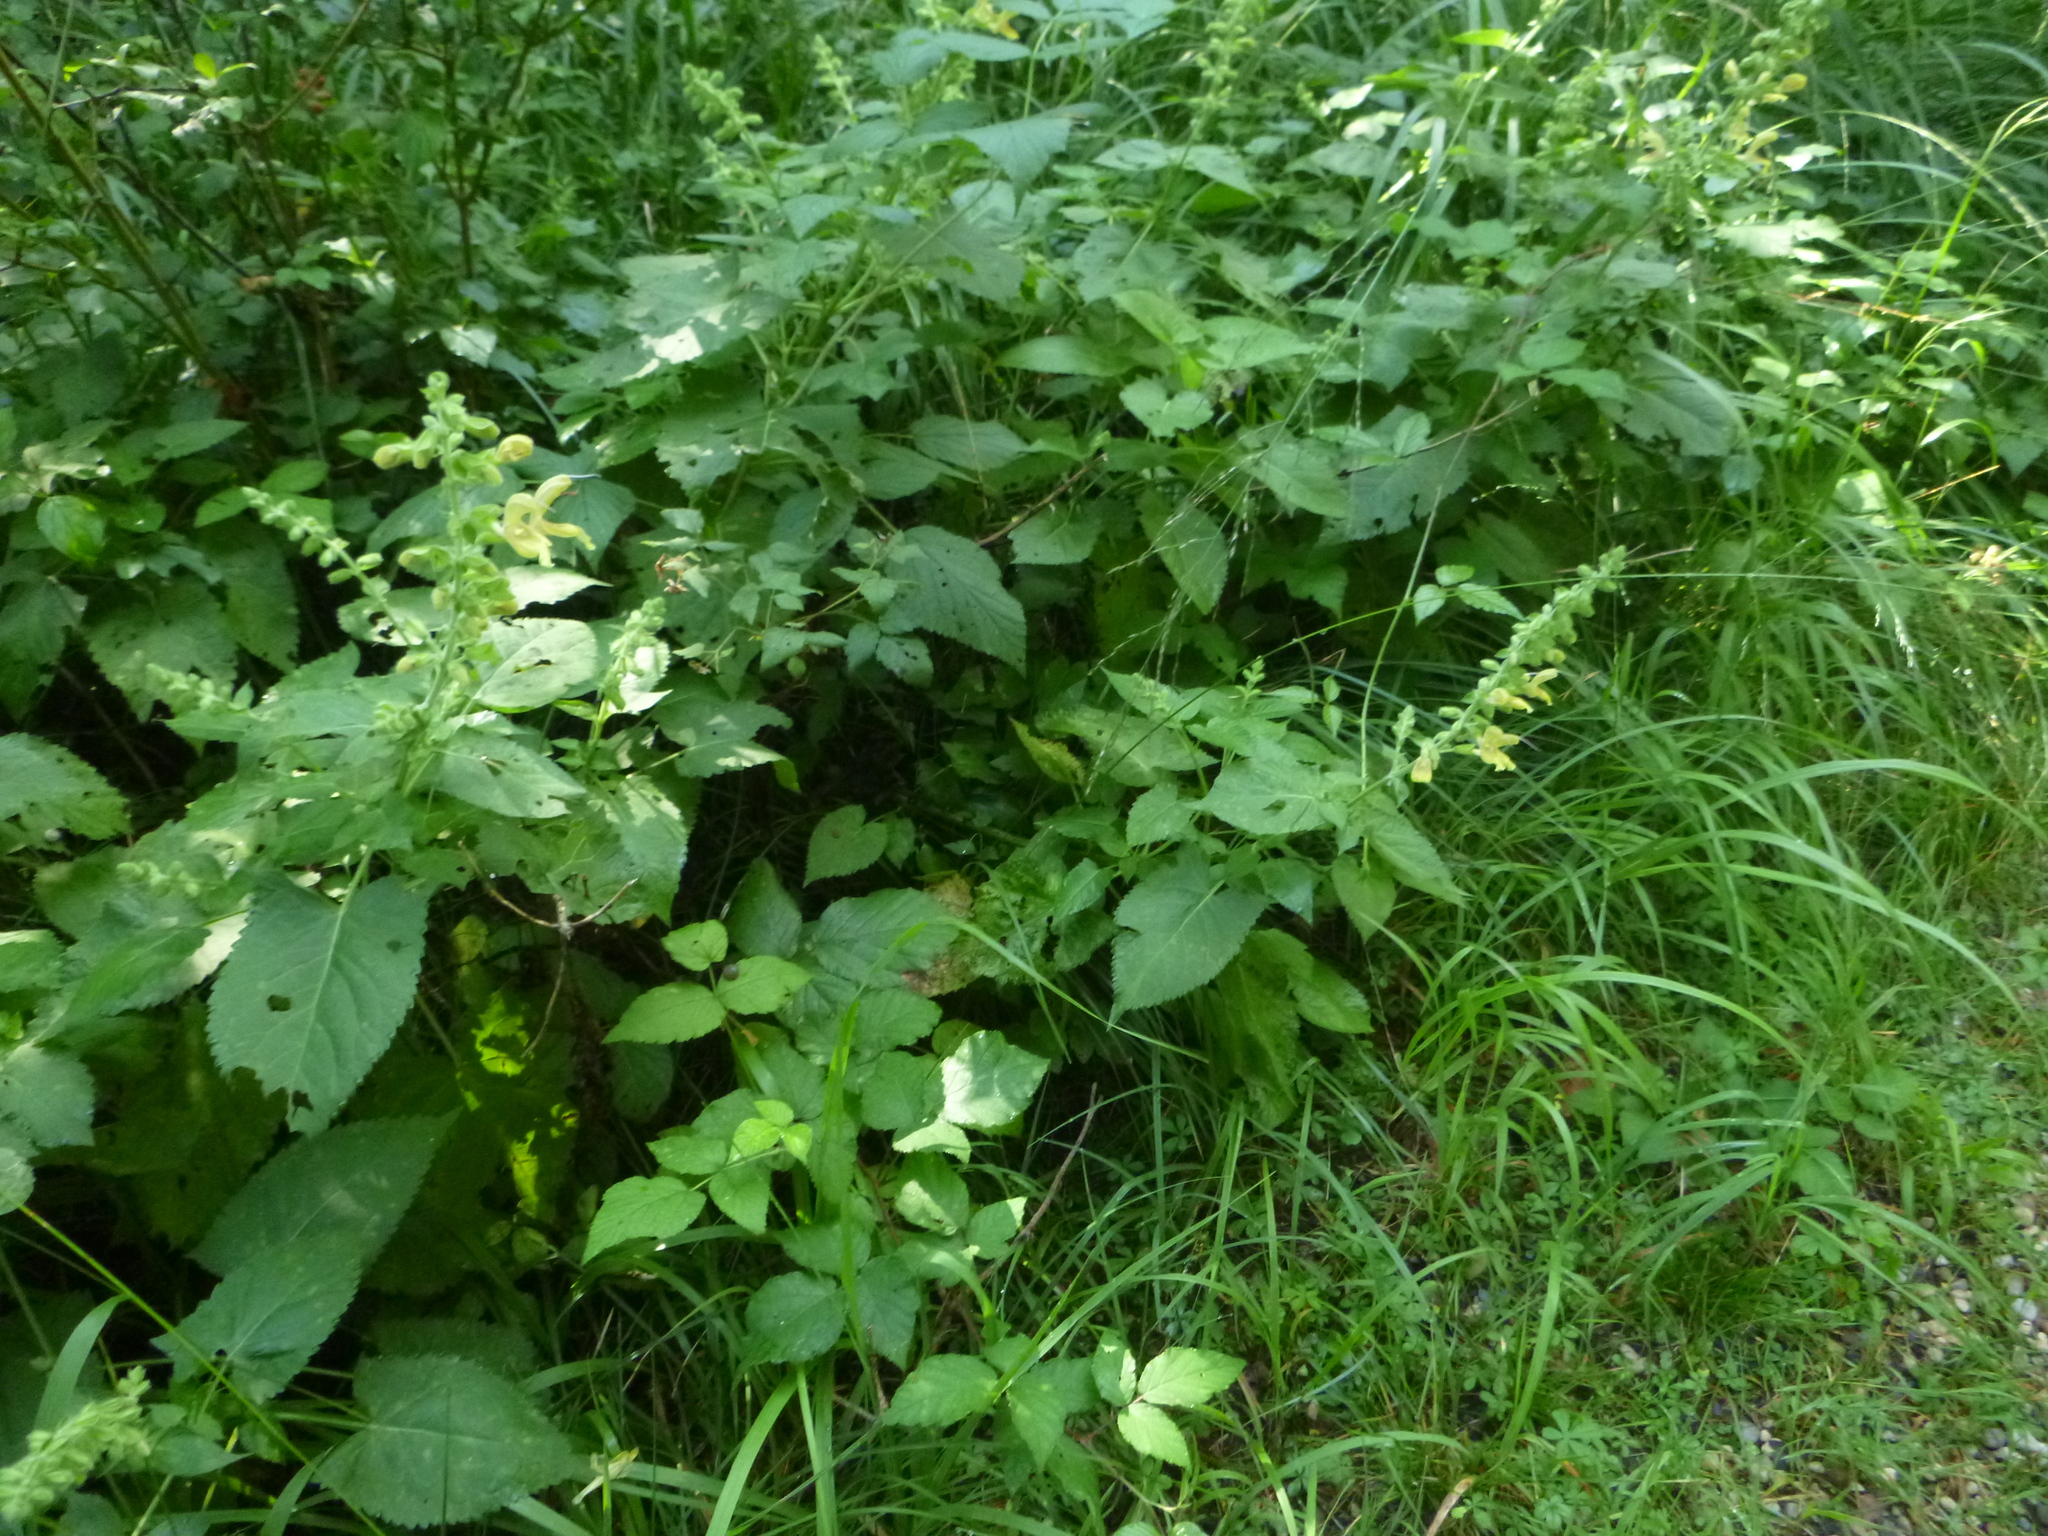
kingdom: Plantae
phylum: Tracheophyta
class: Magnoliopsida
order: Lamiales
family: Lamiaceae
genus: Salvia
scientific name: Salvia glutinosa
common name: Sticky clary
